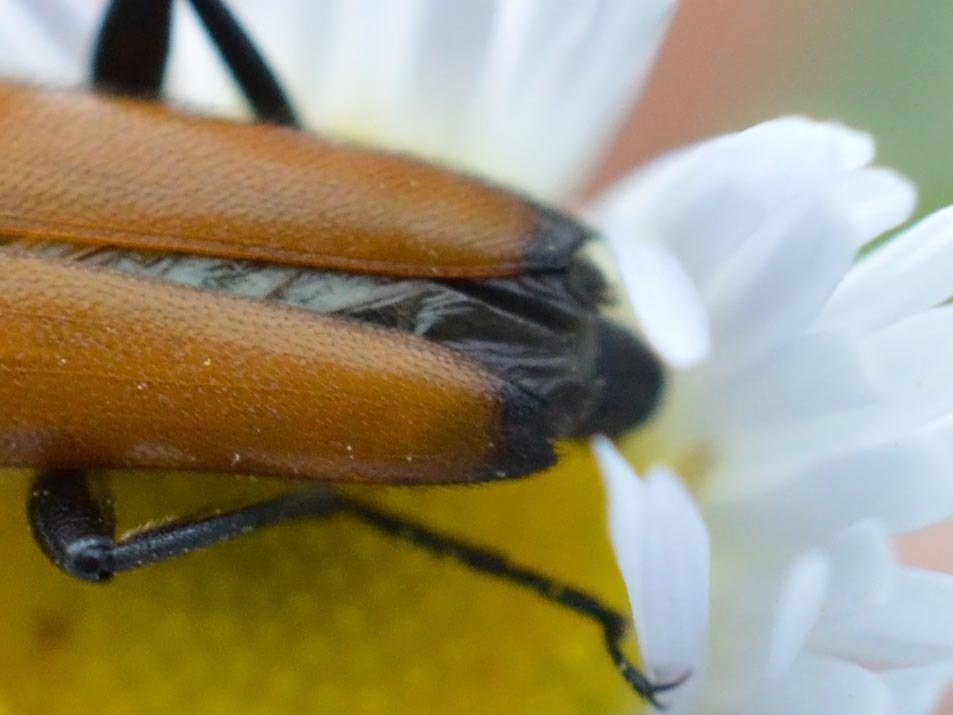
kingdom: Animalia
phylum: Arthropoda
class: Insecta
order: Coleoptera
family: Cerambycidae
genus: Paracorymbia
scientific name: Paracorymbia fulva
